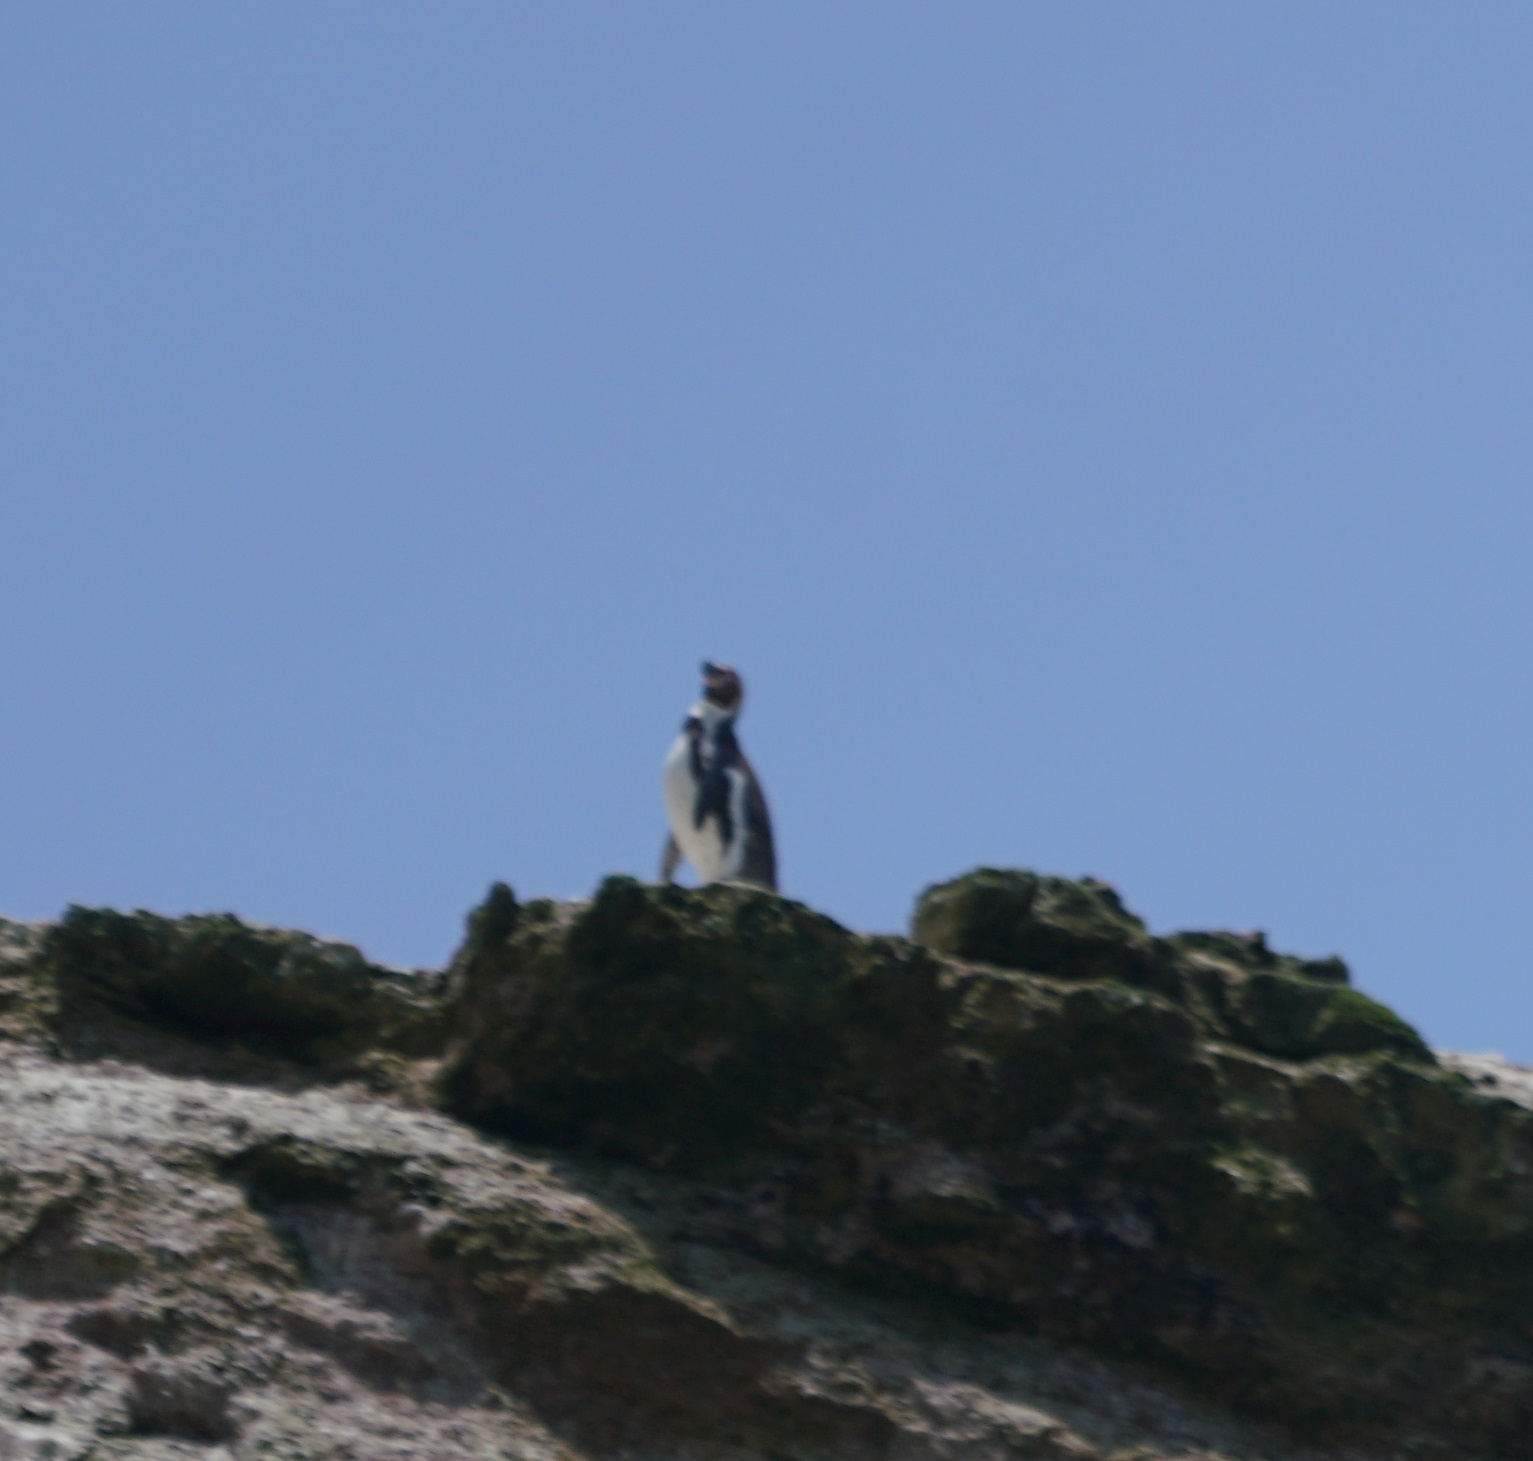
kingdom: Animalia
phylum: Chordata
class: Aves
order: Sphenisciformes
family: Spheniscidae
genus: Spheniscus
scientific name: Spheniscus humboldti
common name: Humboldt penguin
